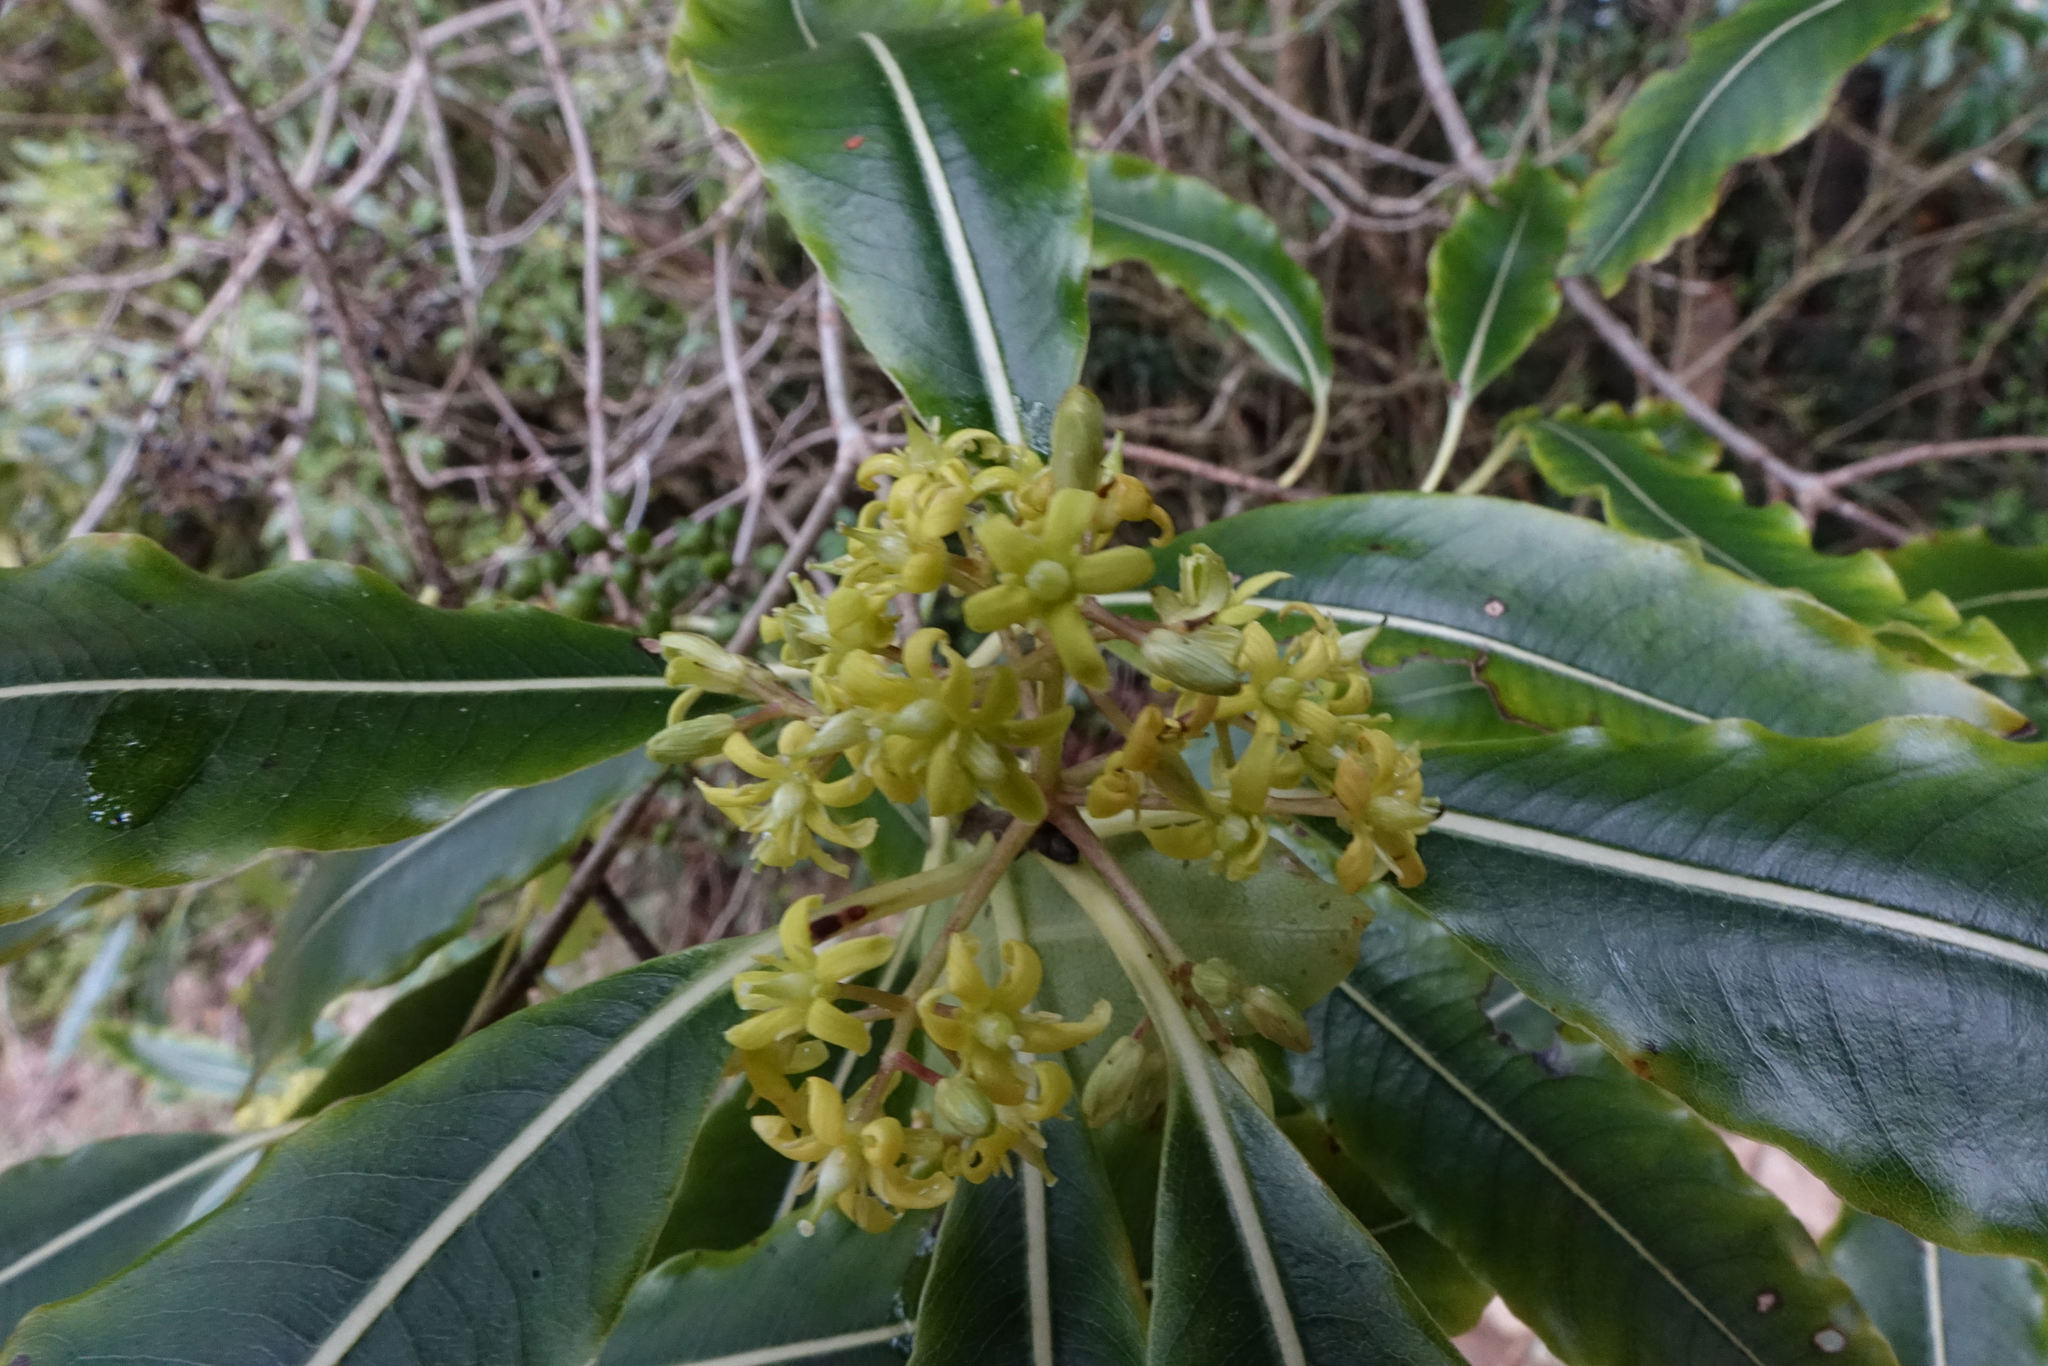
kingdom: Plantae
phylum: Tracheophyta
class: Magnoliopsida
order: Apiales
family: Pittosporaceae
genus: Pittosporum
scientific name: Pittosporum eugenioides
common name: Lemonwood
